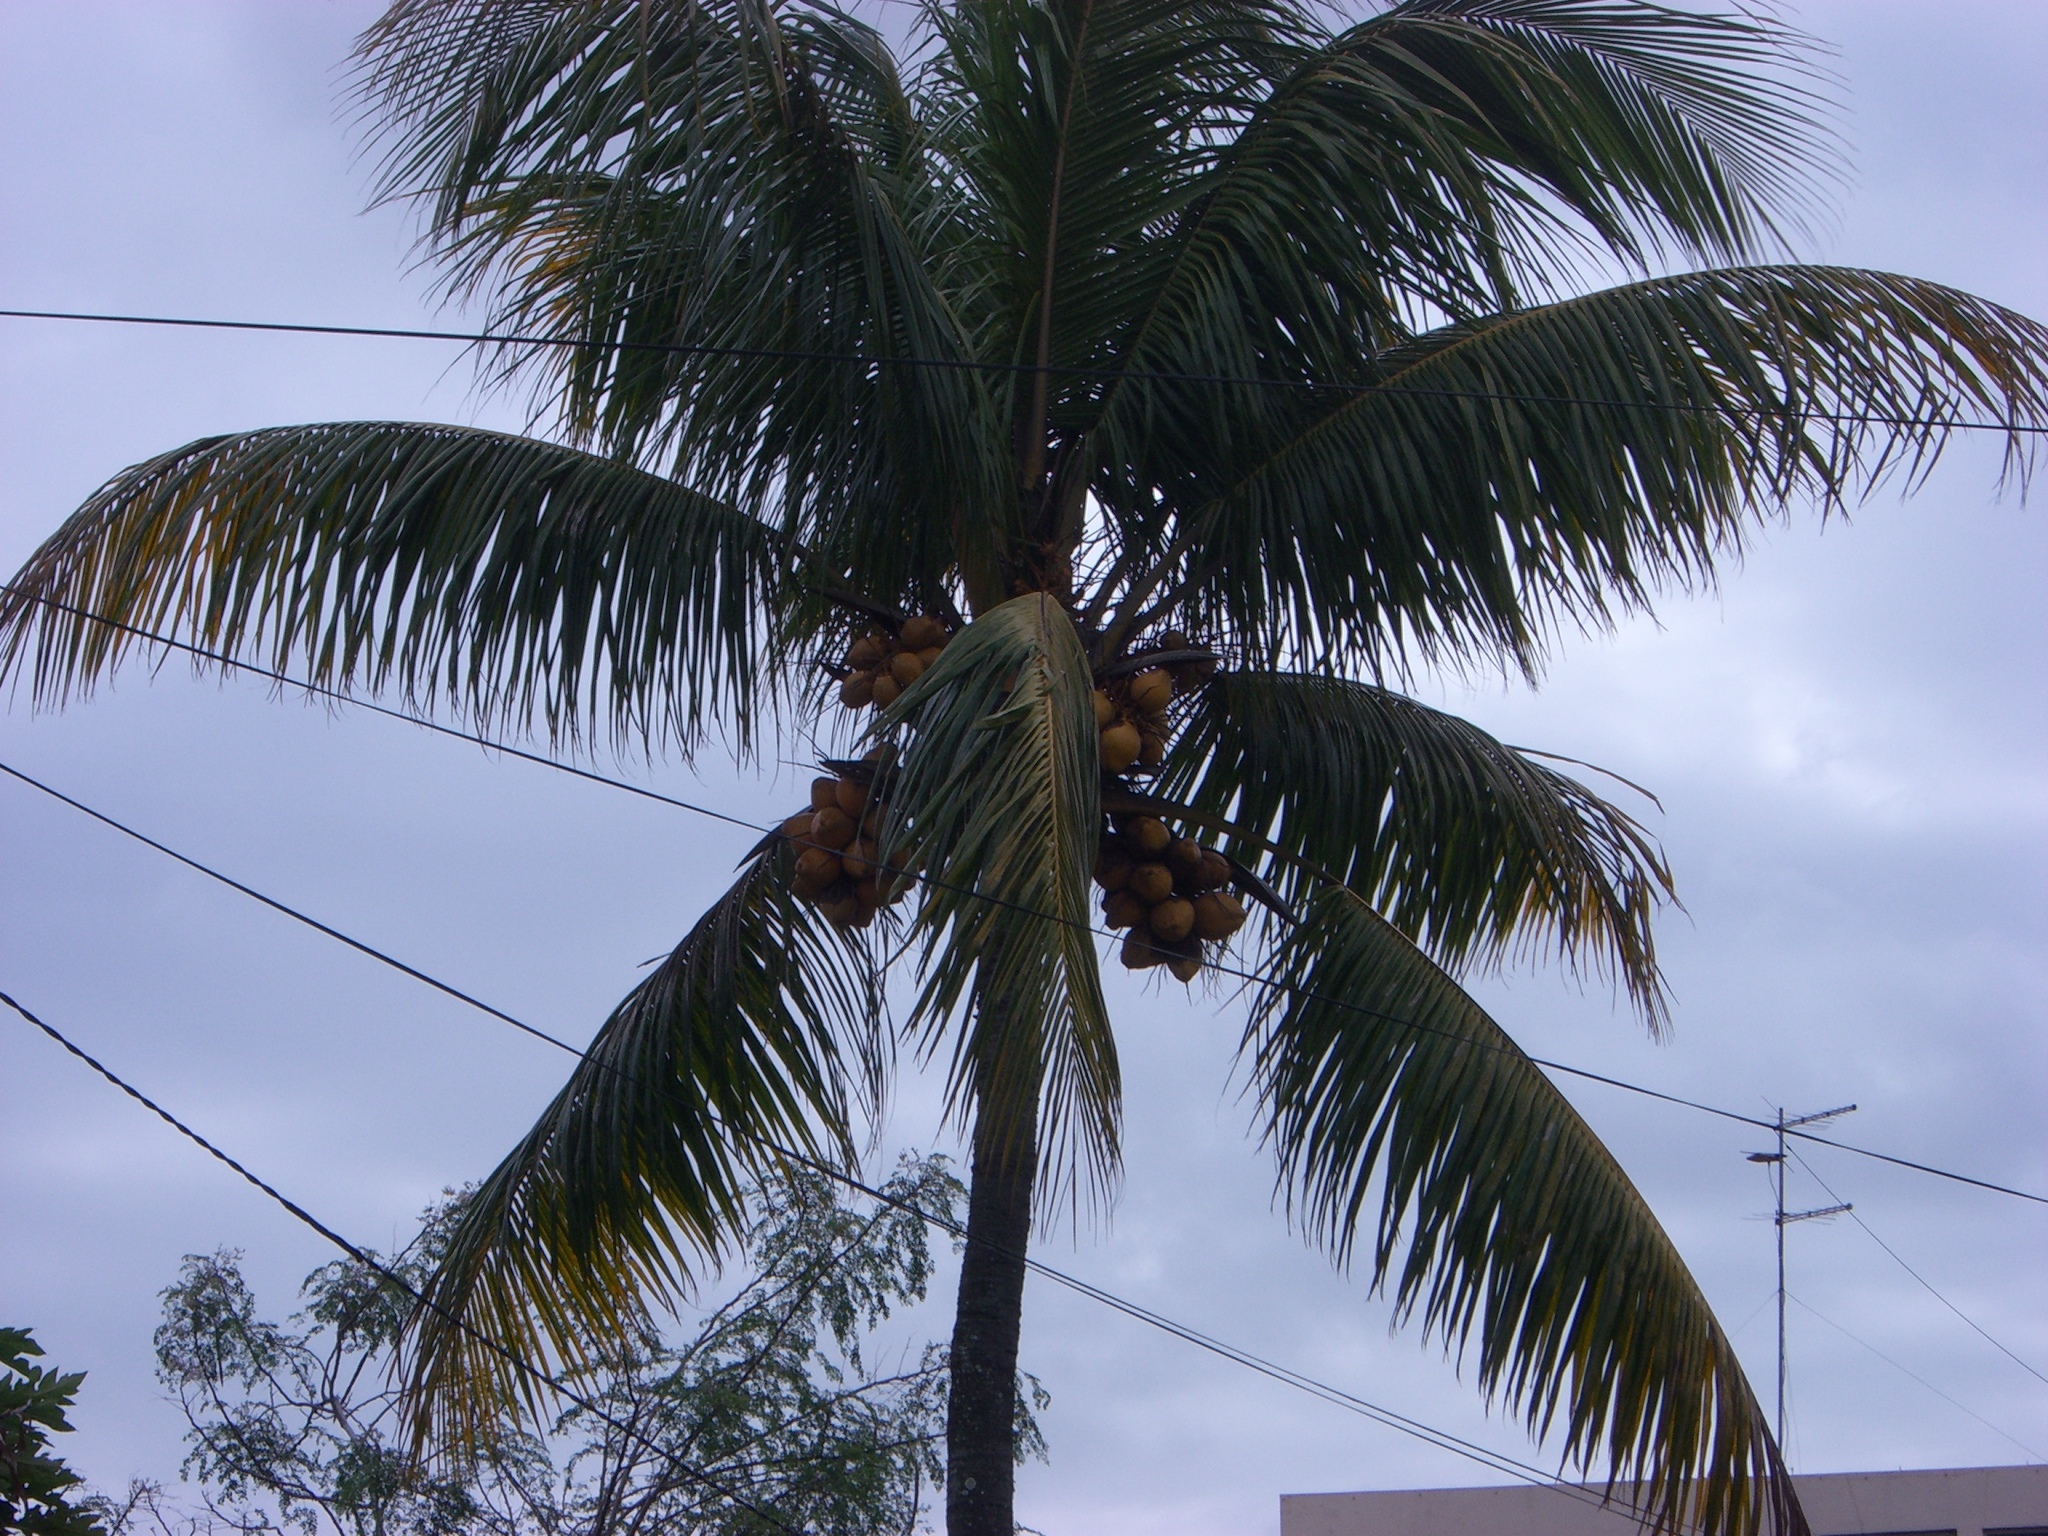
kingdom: Plantae
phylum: Tracheophyta
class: Liliopsida
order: Arecales
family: Arecaceae
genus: Cocos
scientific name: Cocos nucifera
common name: Coconut palm
